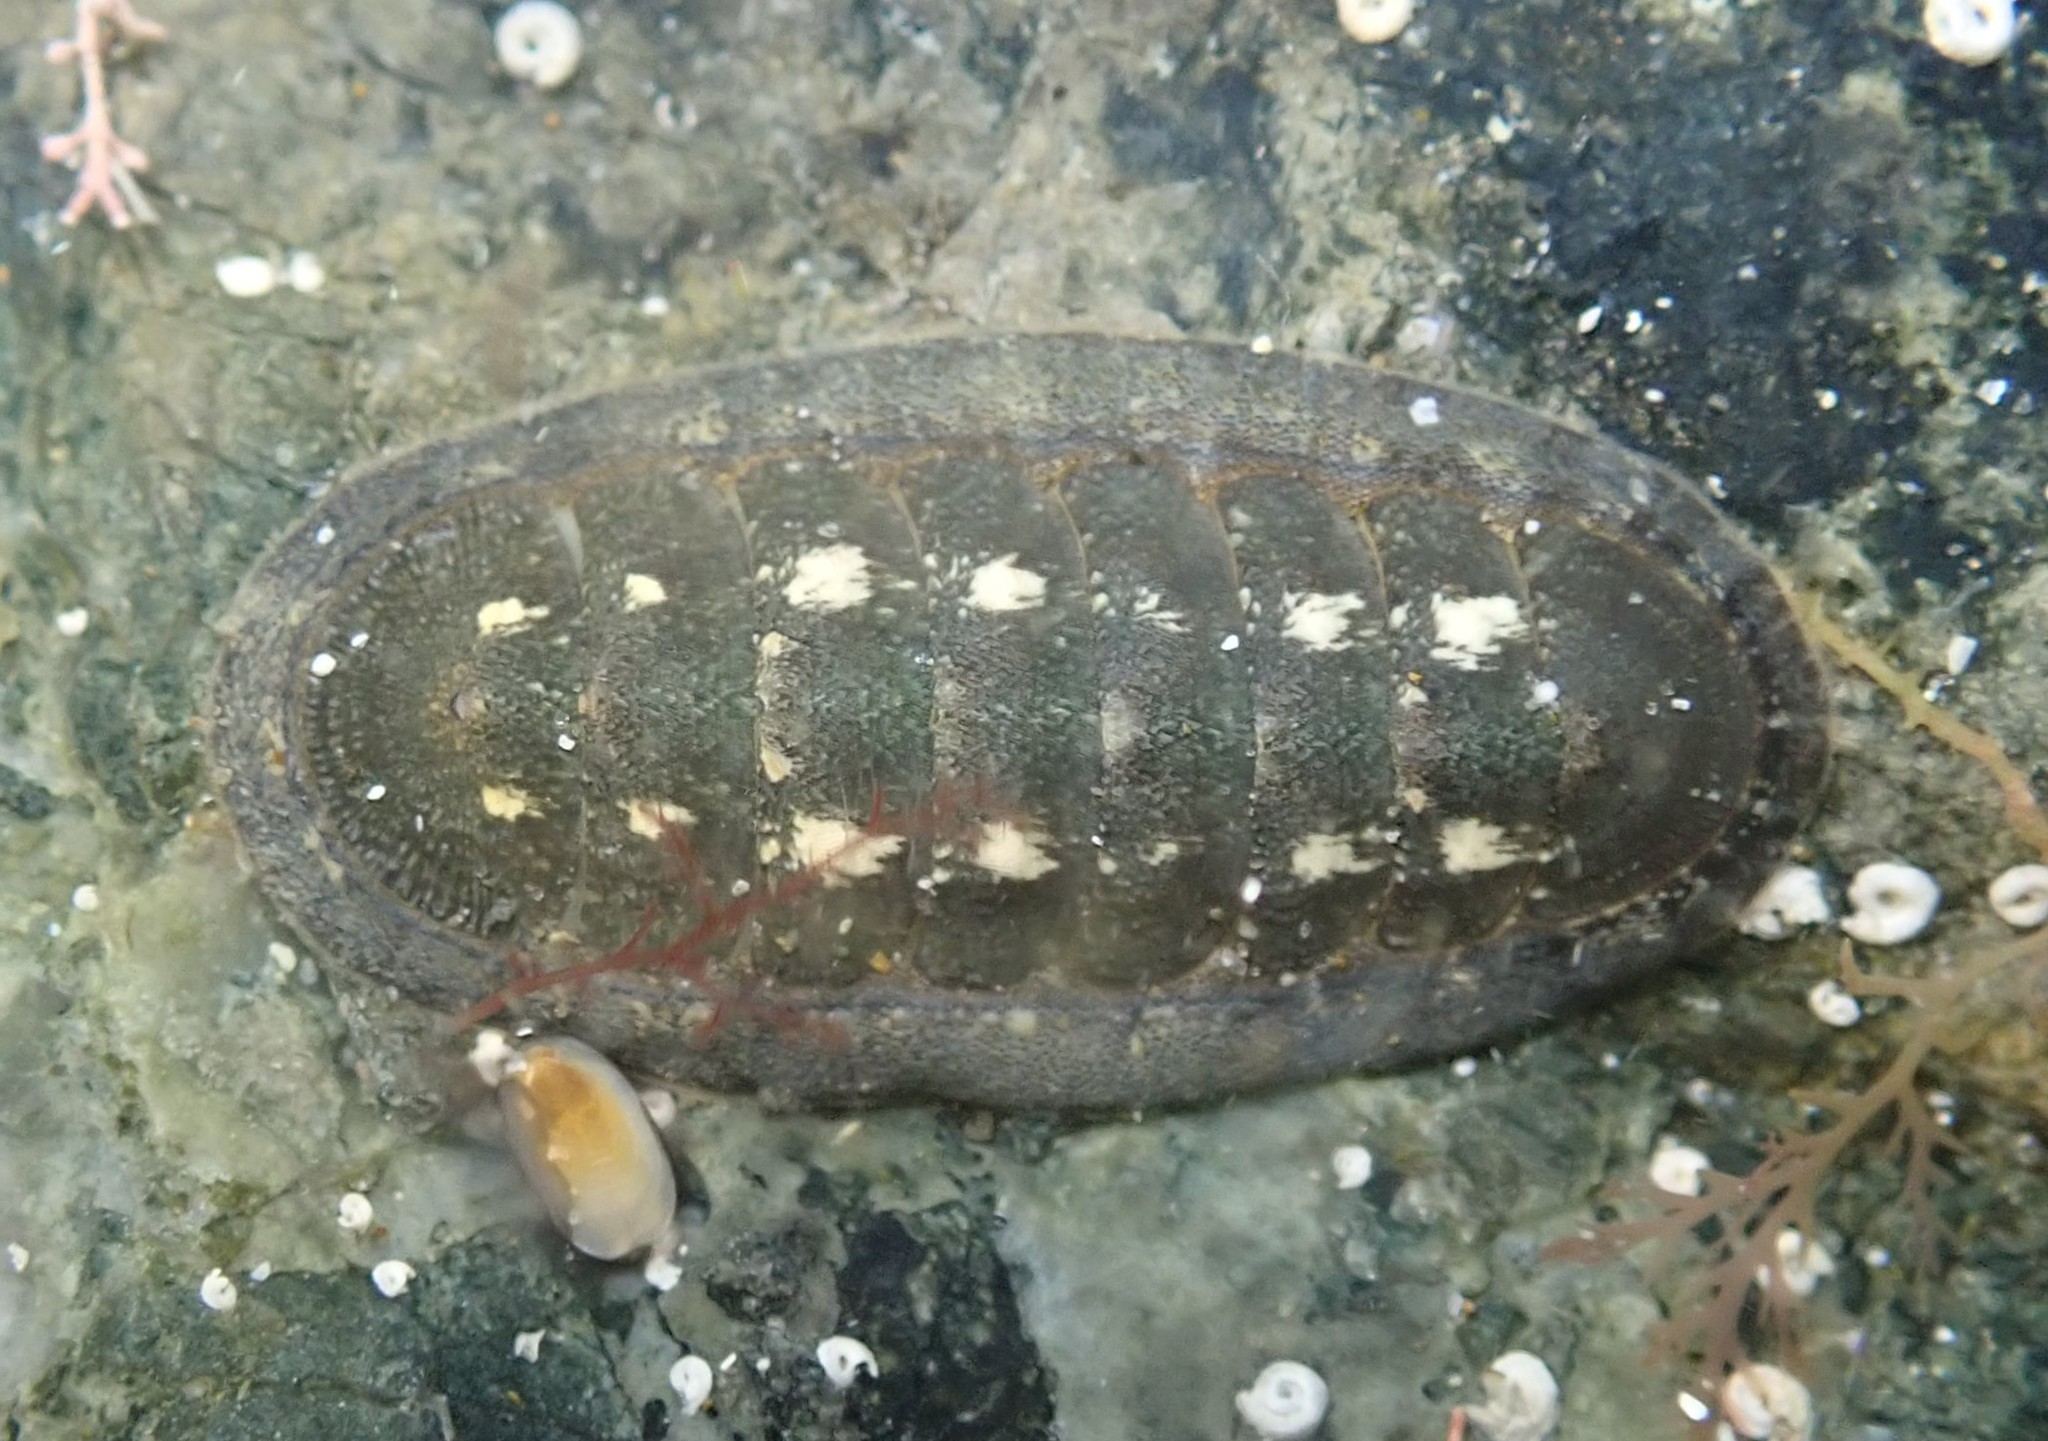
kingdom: Animalia
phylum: Mollusca
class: Gastropoda
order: Lepetellida
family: Fissurellidae
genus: Scutus
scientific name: Scutus breviculus
